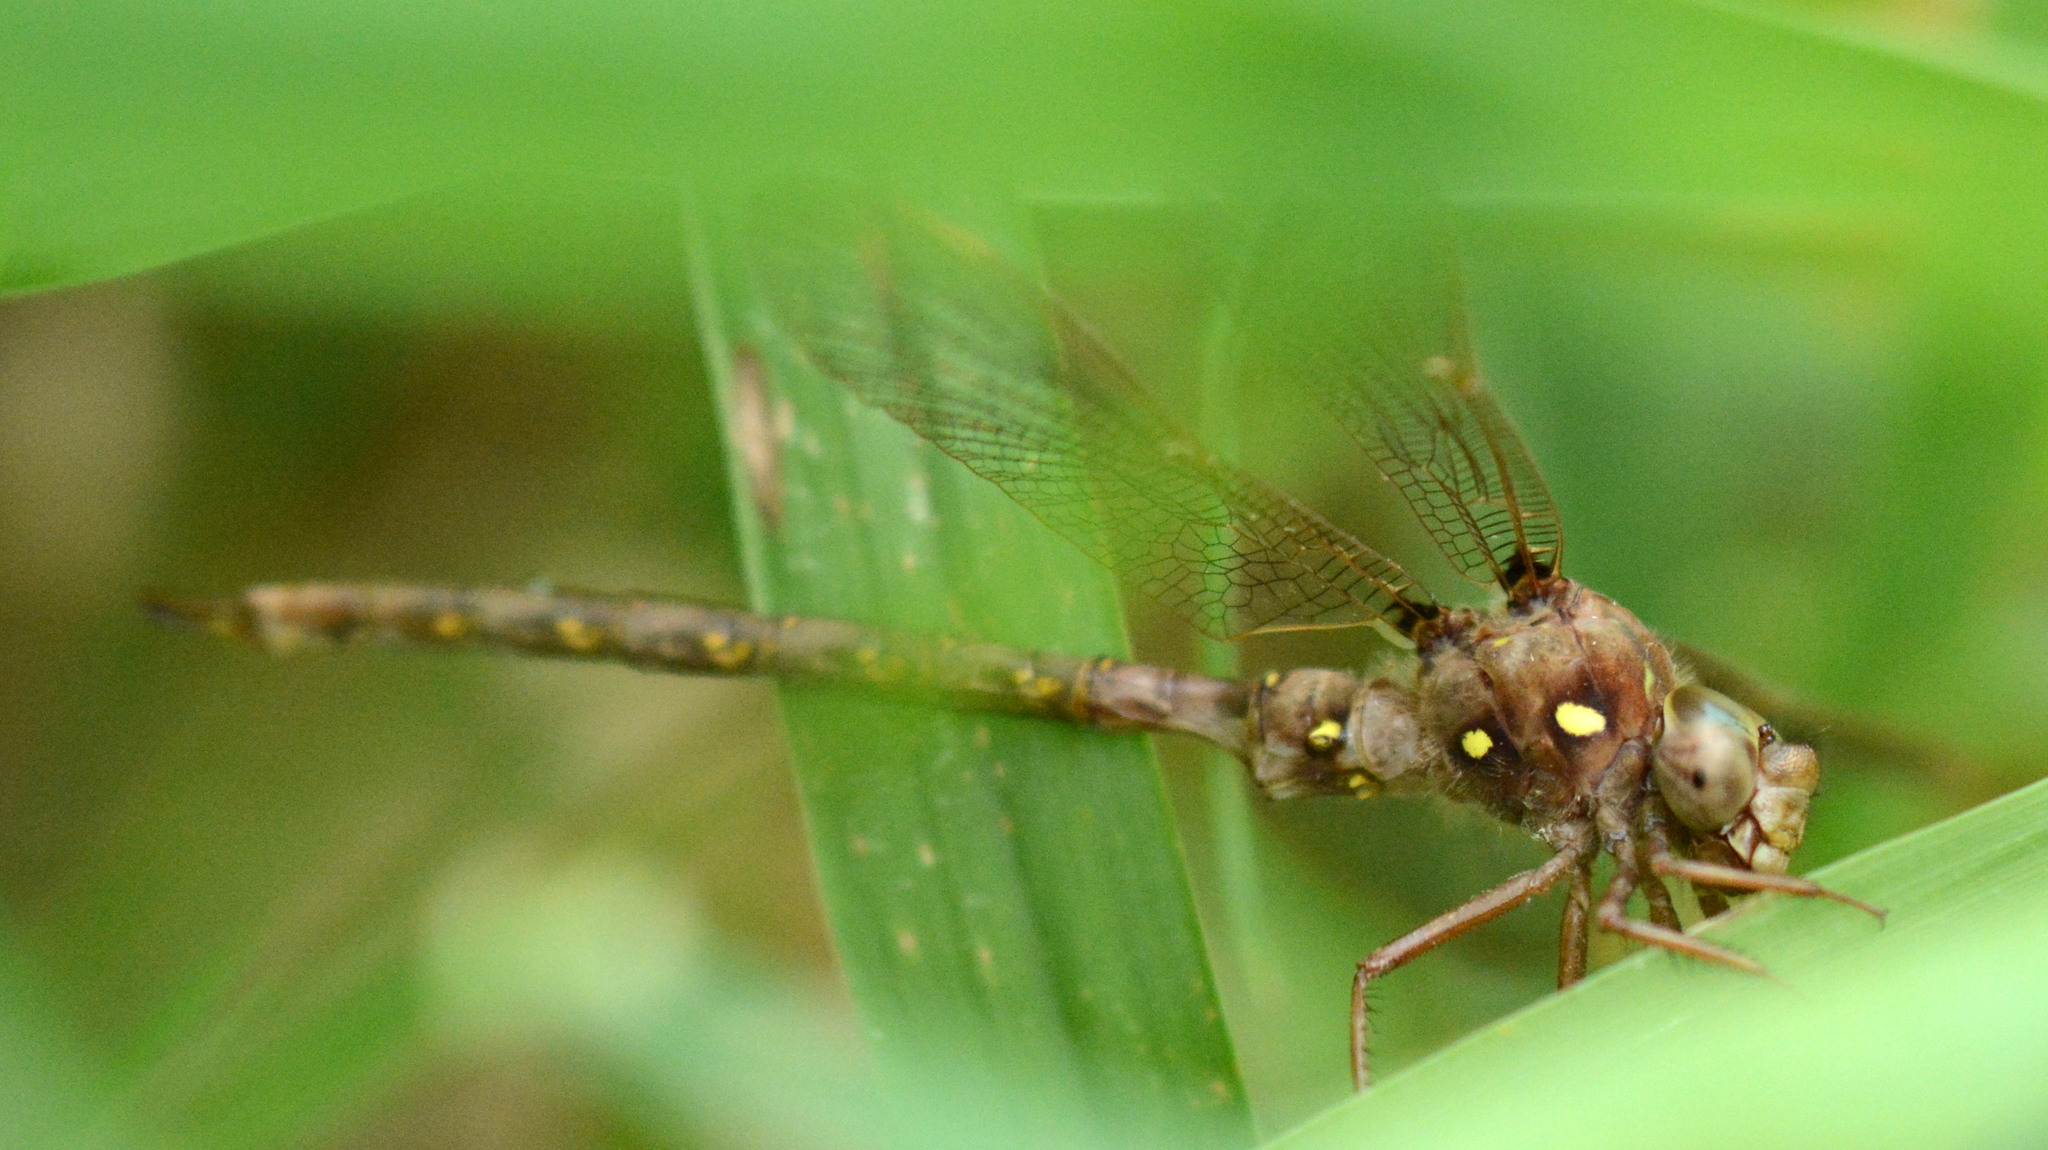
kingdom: Animalia
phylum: Arthropoda
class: Insecta
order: Odonata
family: Aeshnidae
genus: Boyeria
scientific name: Boyeria vinosa
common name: Fawn darner
